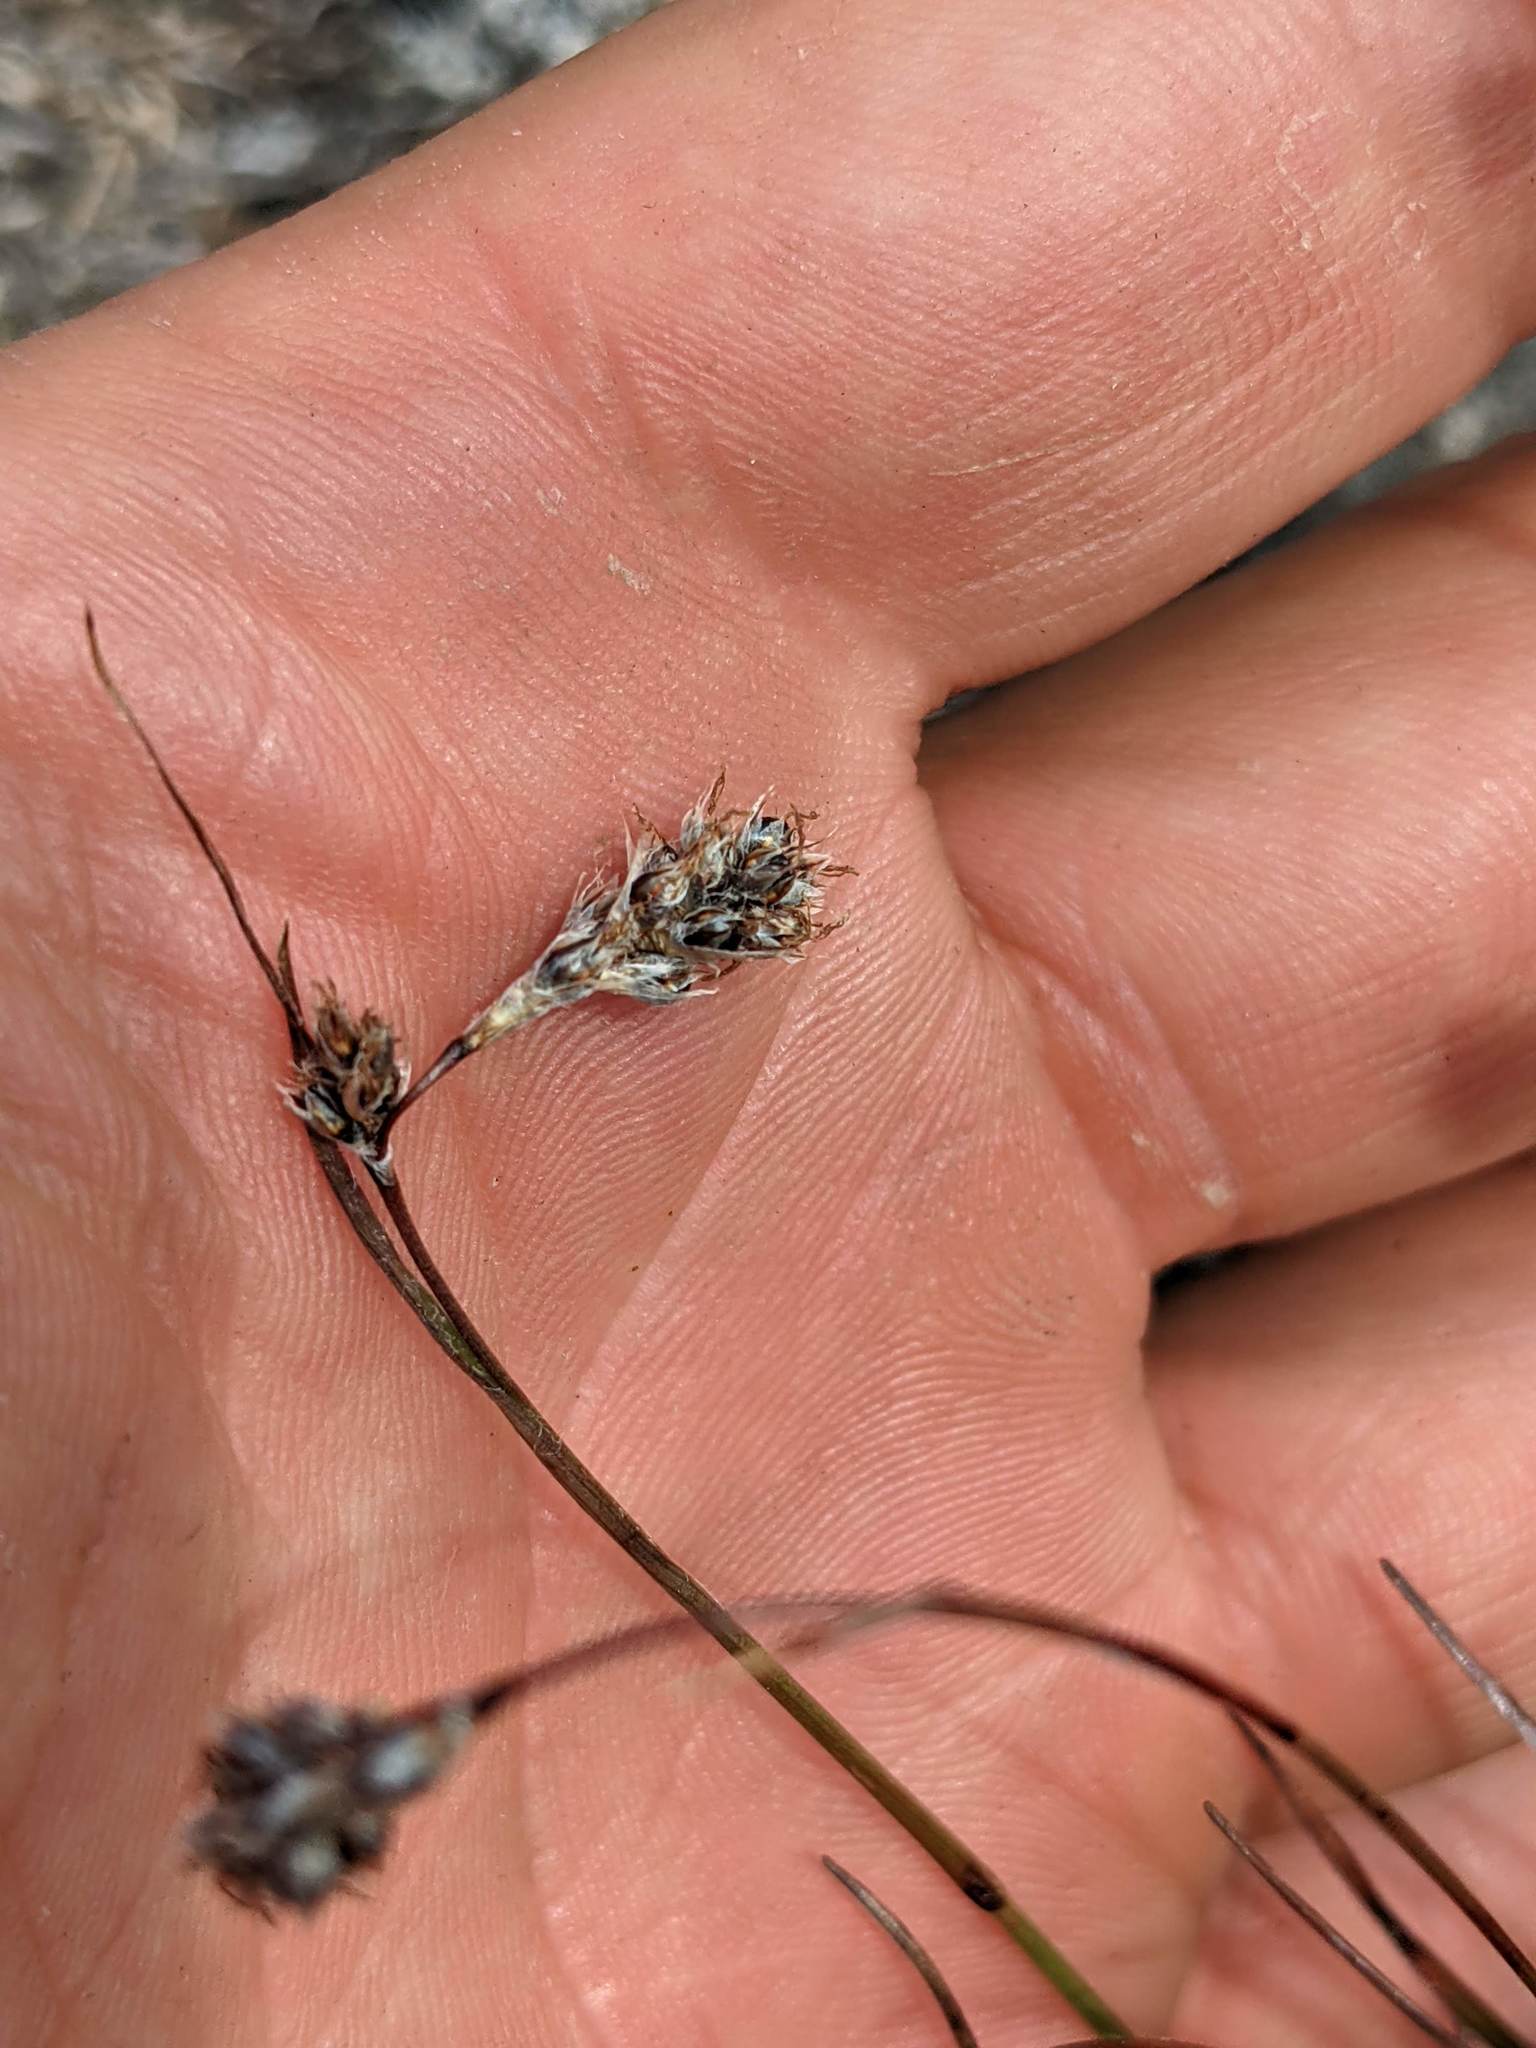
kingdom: Plantae
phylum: Tracheophyta
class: Liliopsida
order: Poales
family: Juncaceae
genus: Luzula
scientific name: Luzula spicata
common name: Spiked wood-rush
